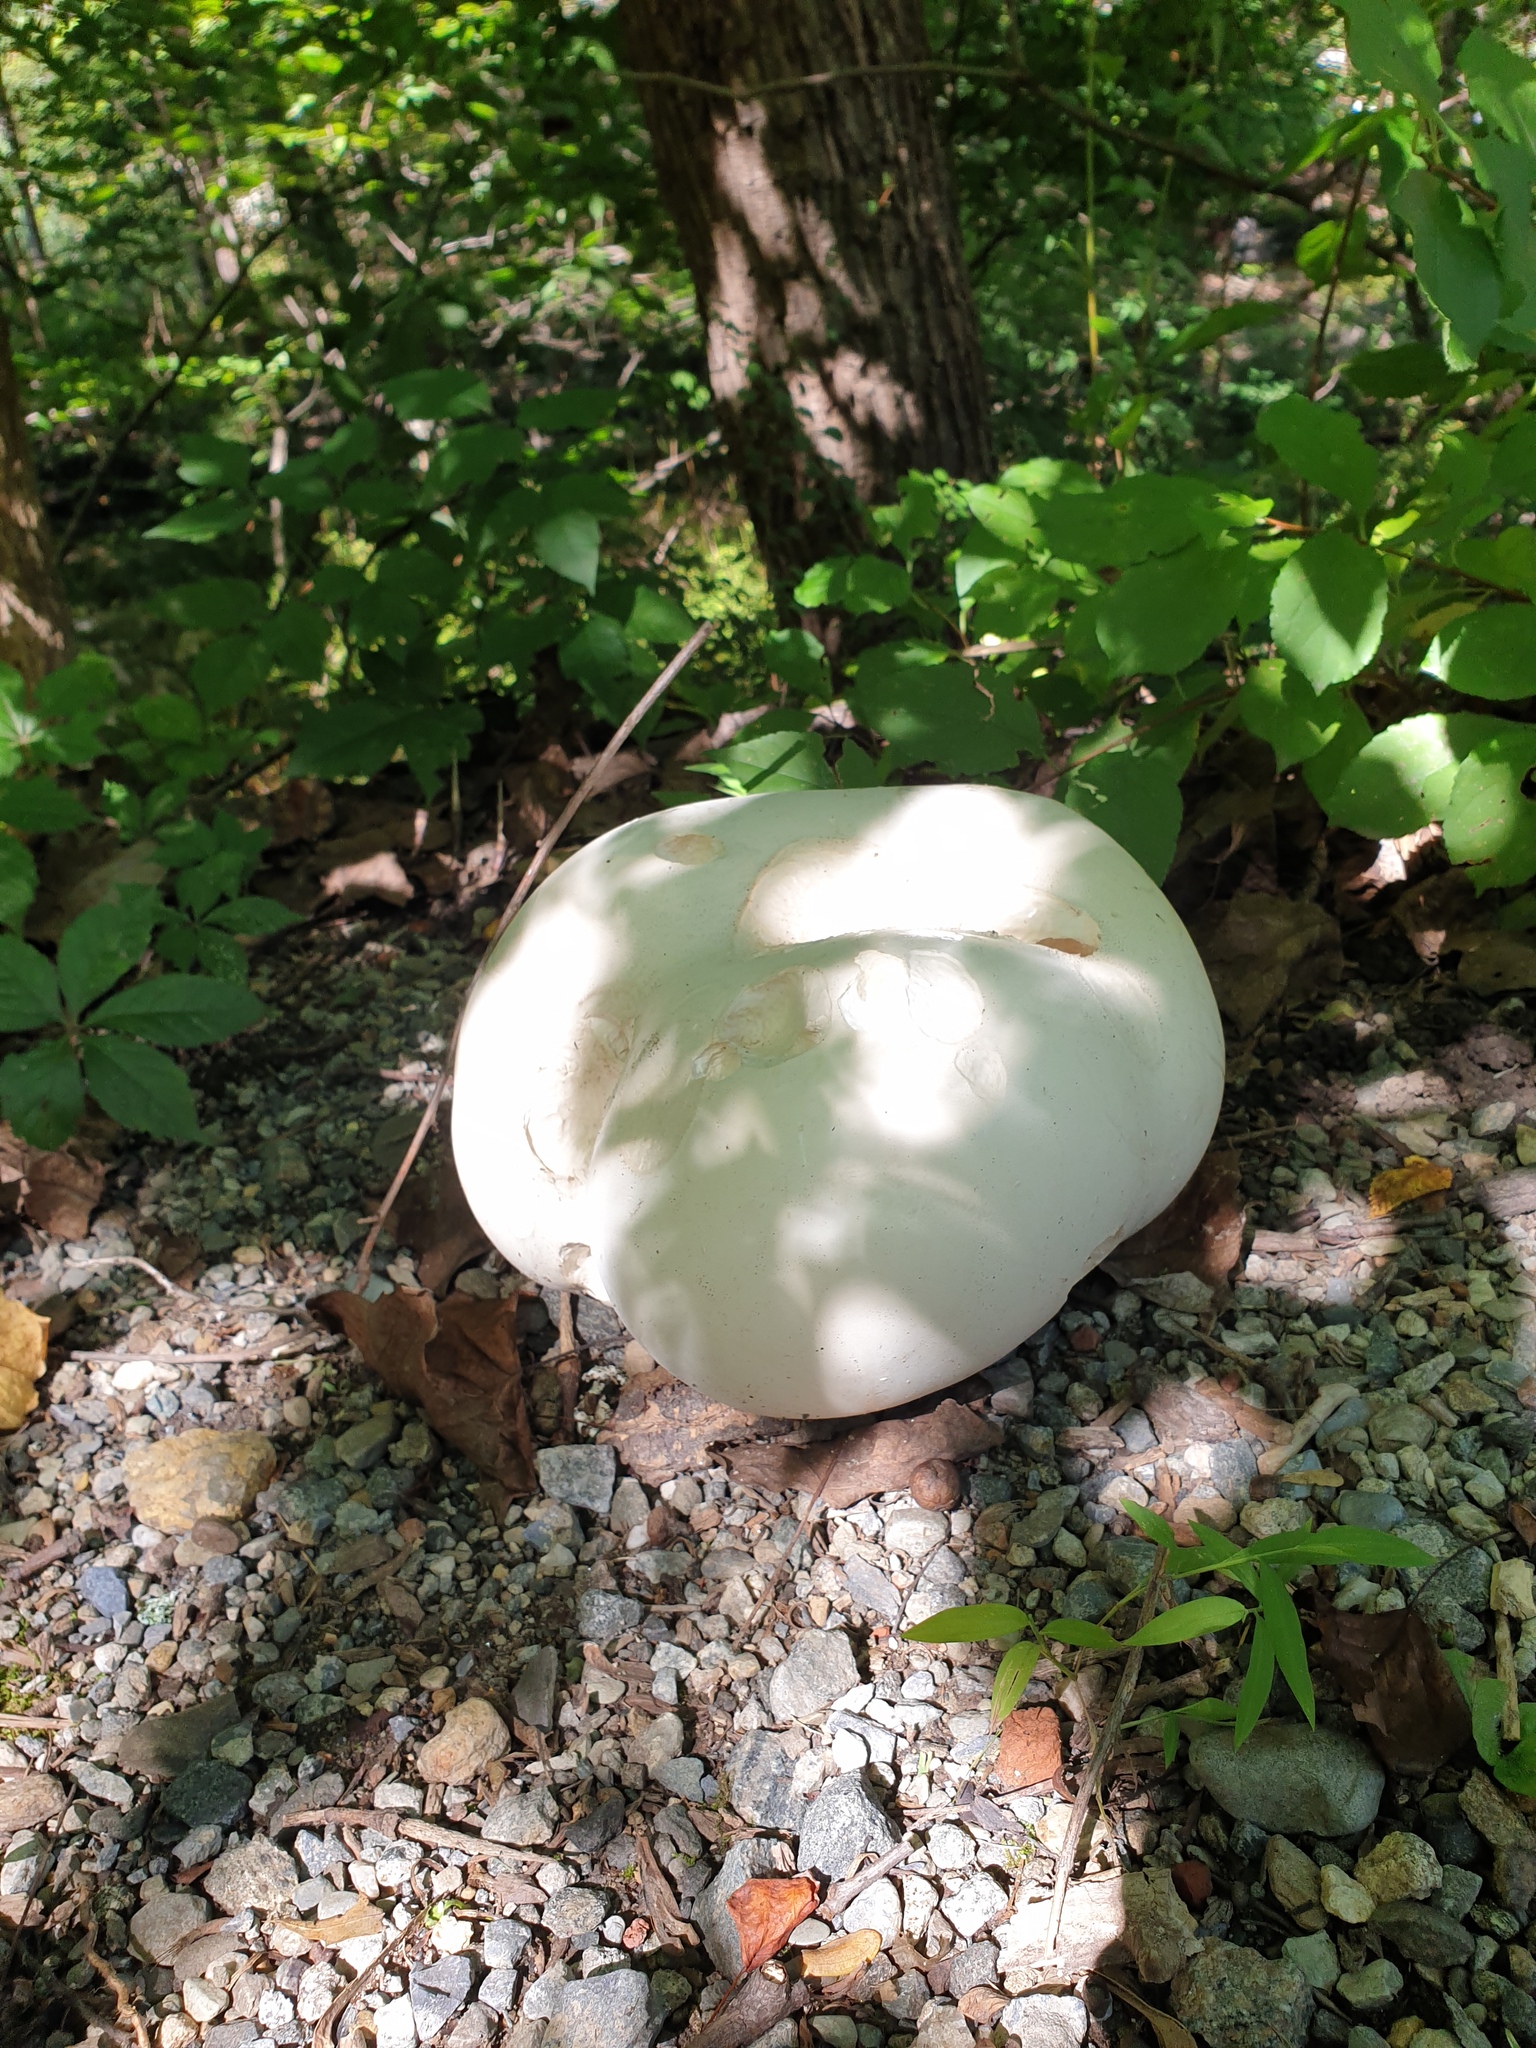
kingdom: Fungi
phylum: Basidiomycota
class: Agaricomycetes
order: Agaricales
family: Lycoperdaceae
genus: Calvatia
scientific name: Calvatia gigantea
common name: Giant puffball
